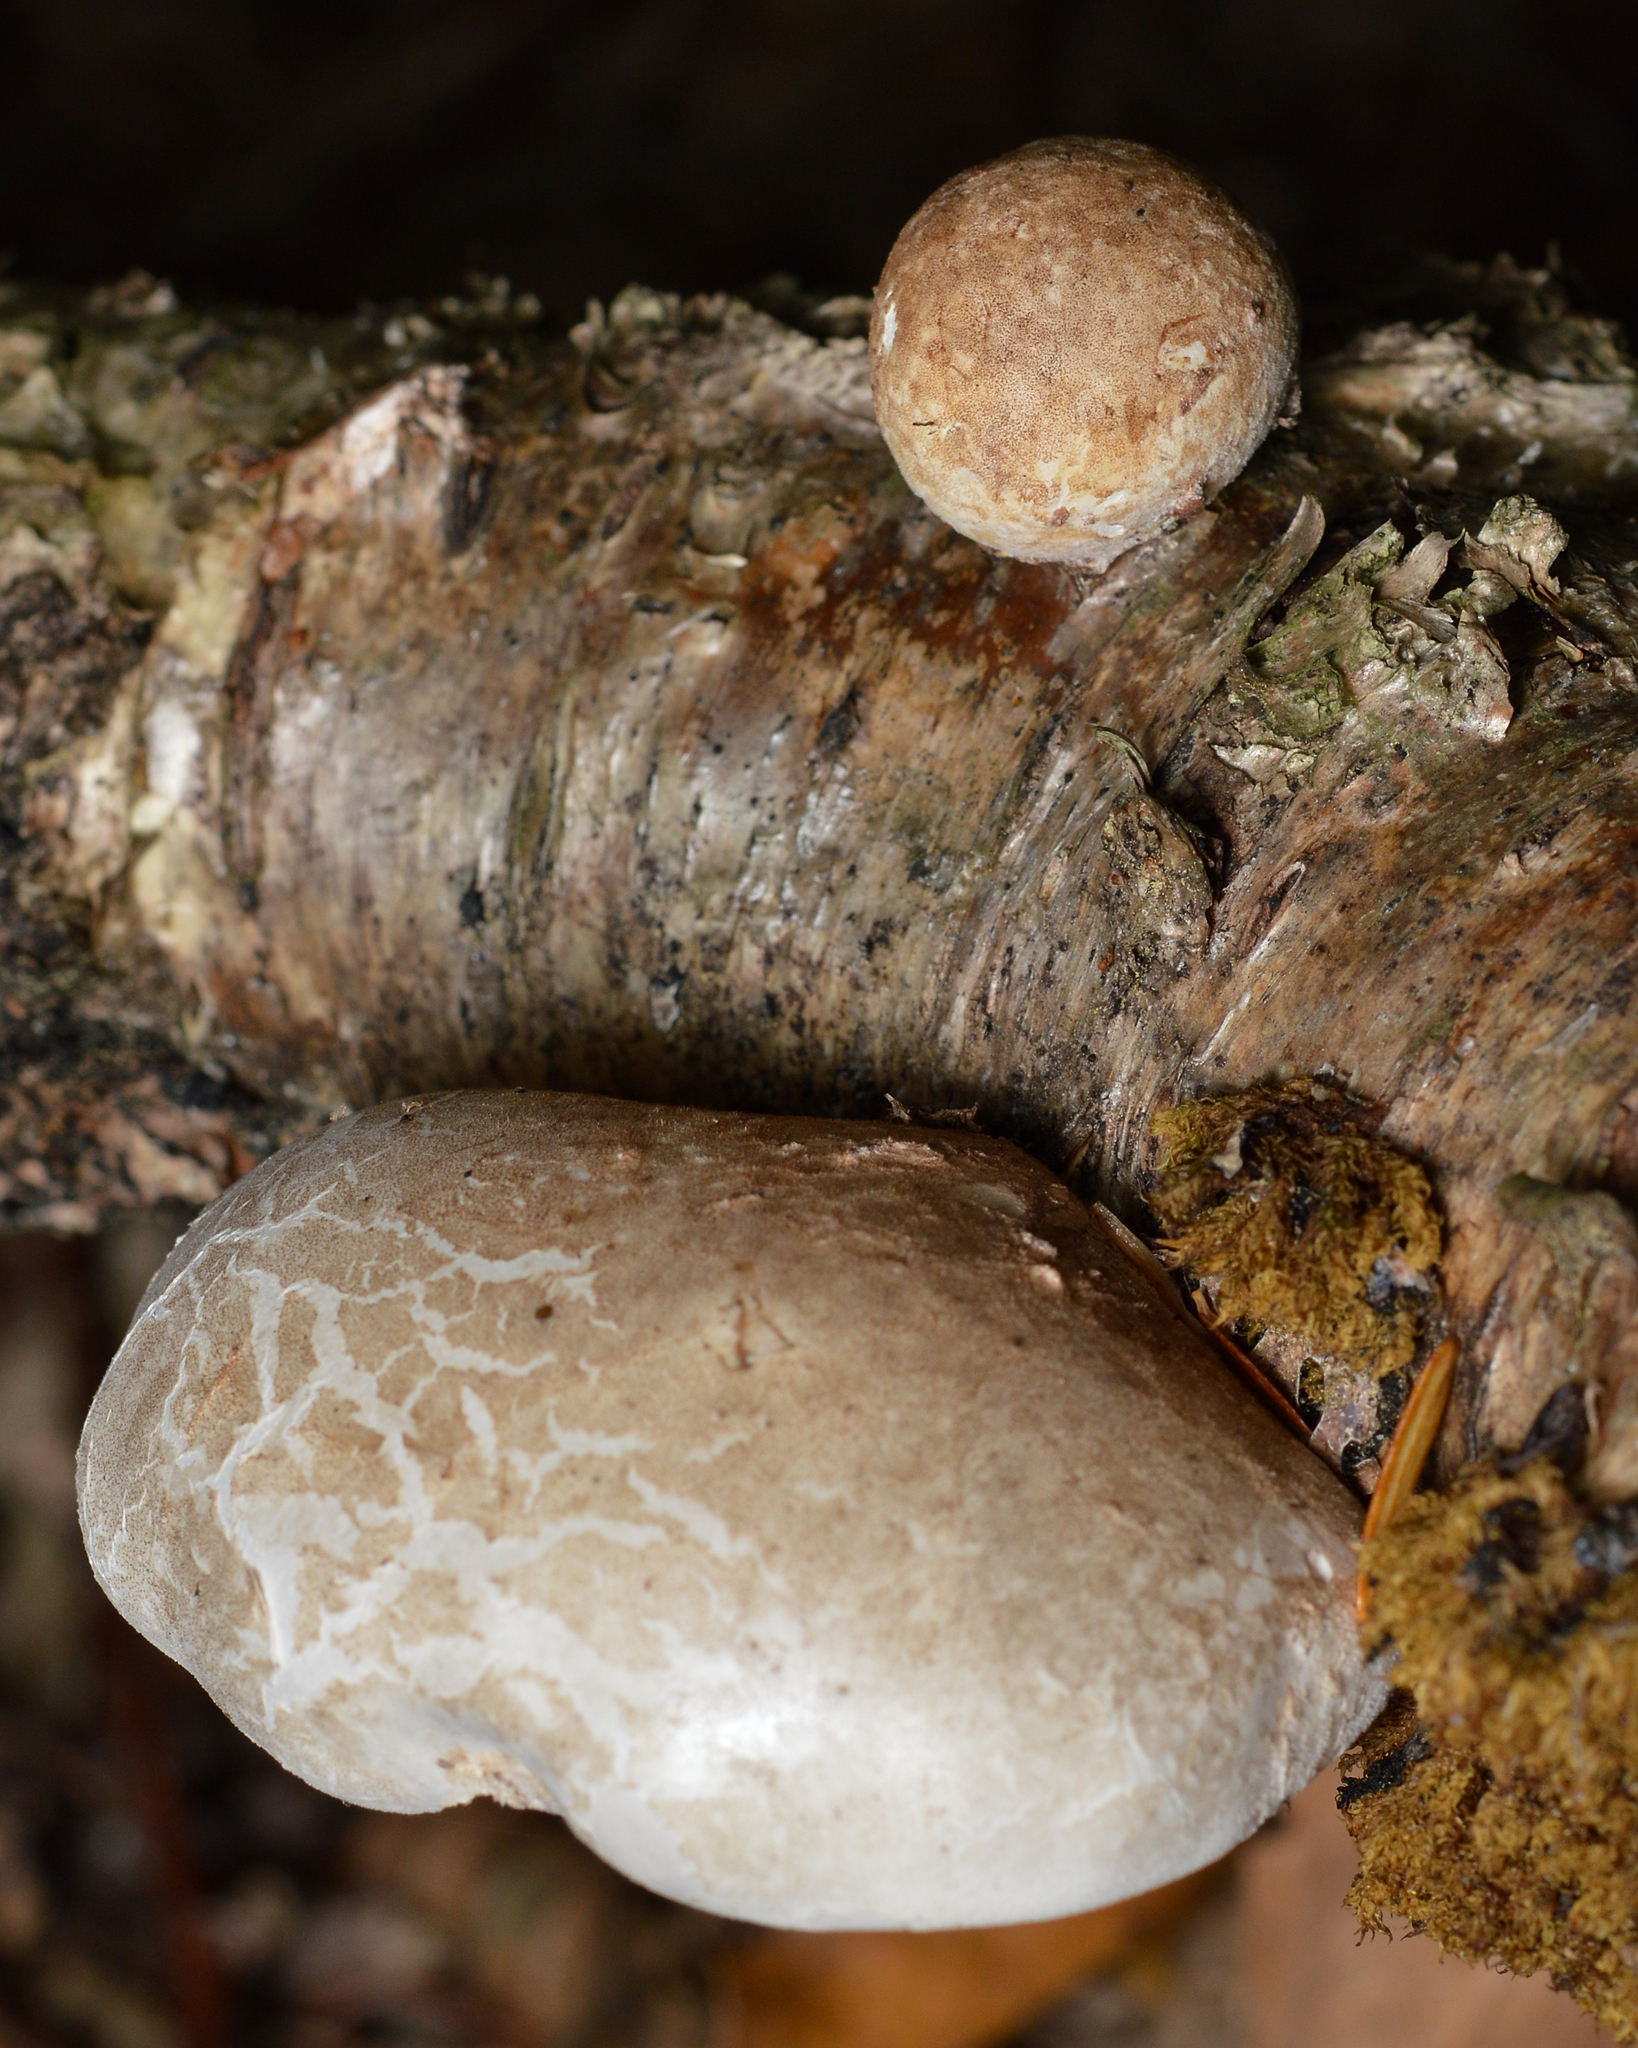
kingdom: Fungi
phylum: Basidiomycota
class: Agaricomycetes
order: Polyporales
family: Fomitopsidaceae
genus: Fomitopsis
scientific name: Fomitopsis betulina
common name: Birch polypore
